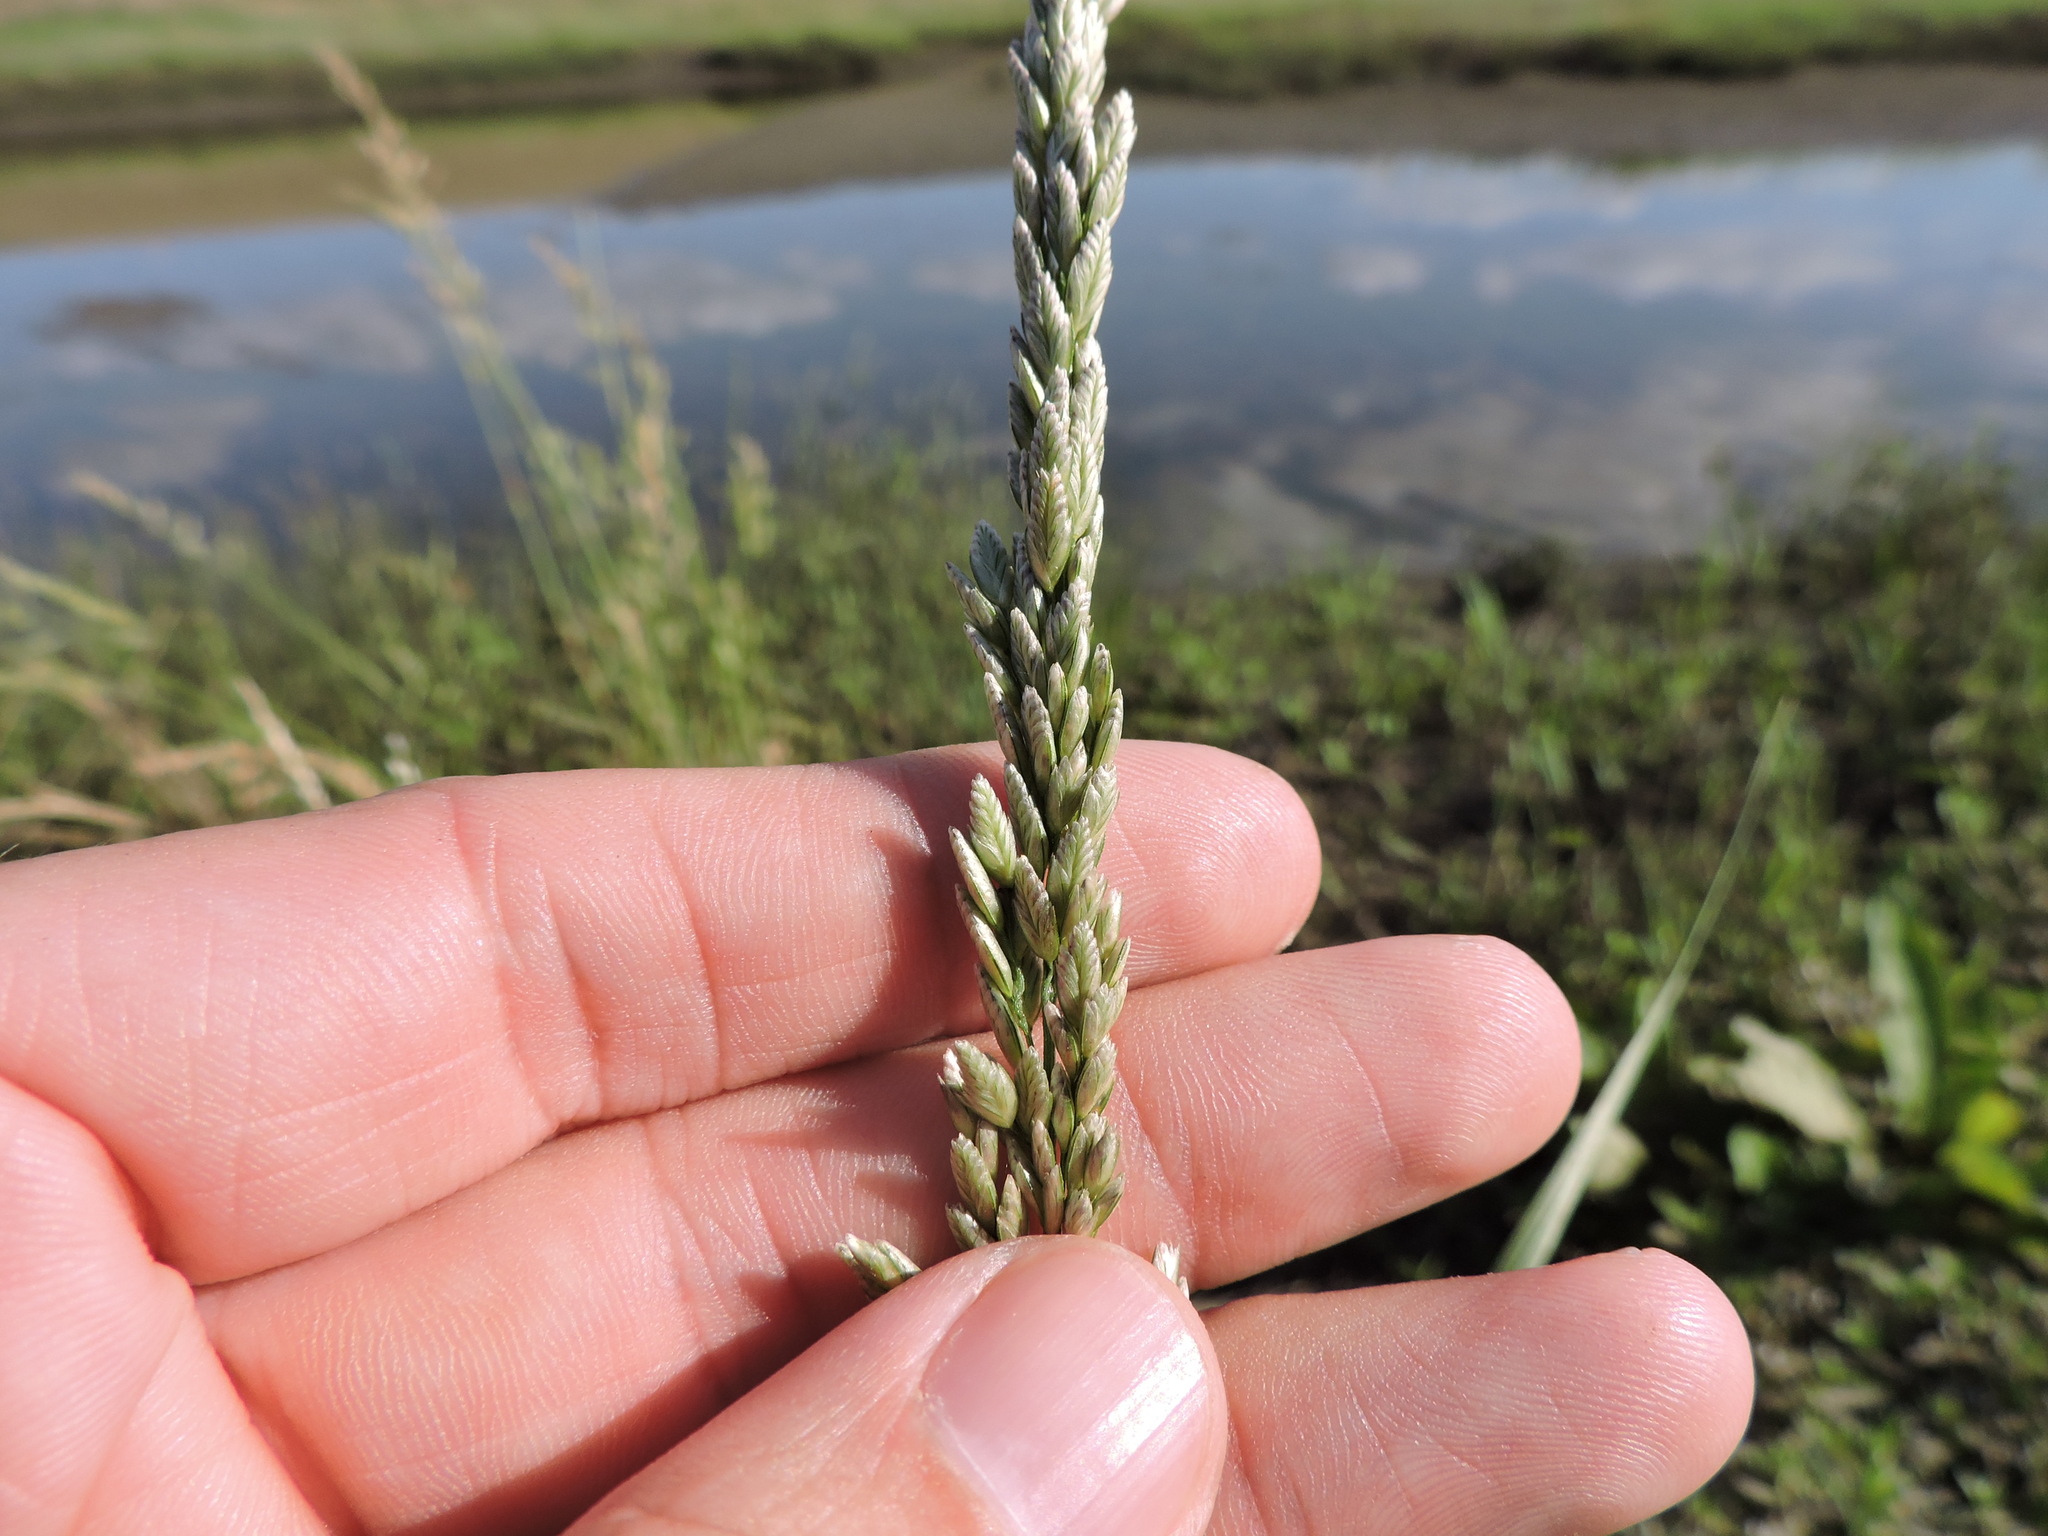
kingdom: Plantae
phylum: Tracheophyta
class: Liliopsida
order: Poales
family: Poaceae
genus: Tridens
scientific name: Tridens albescens
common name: White tridens
